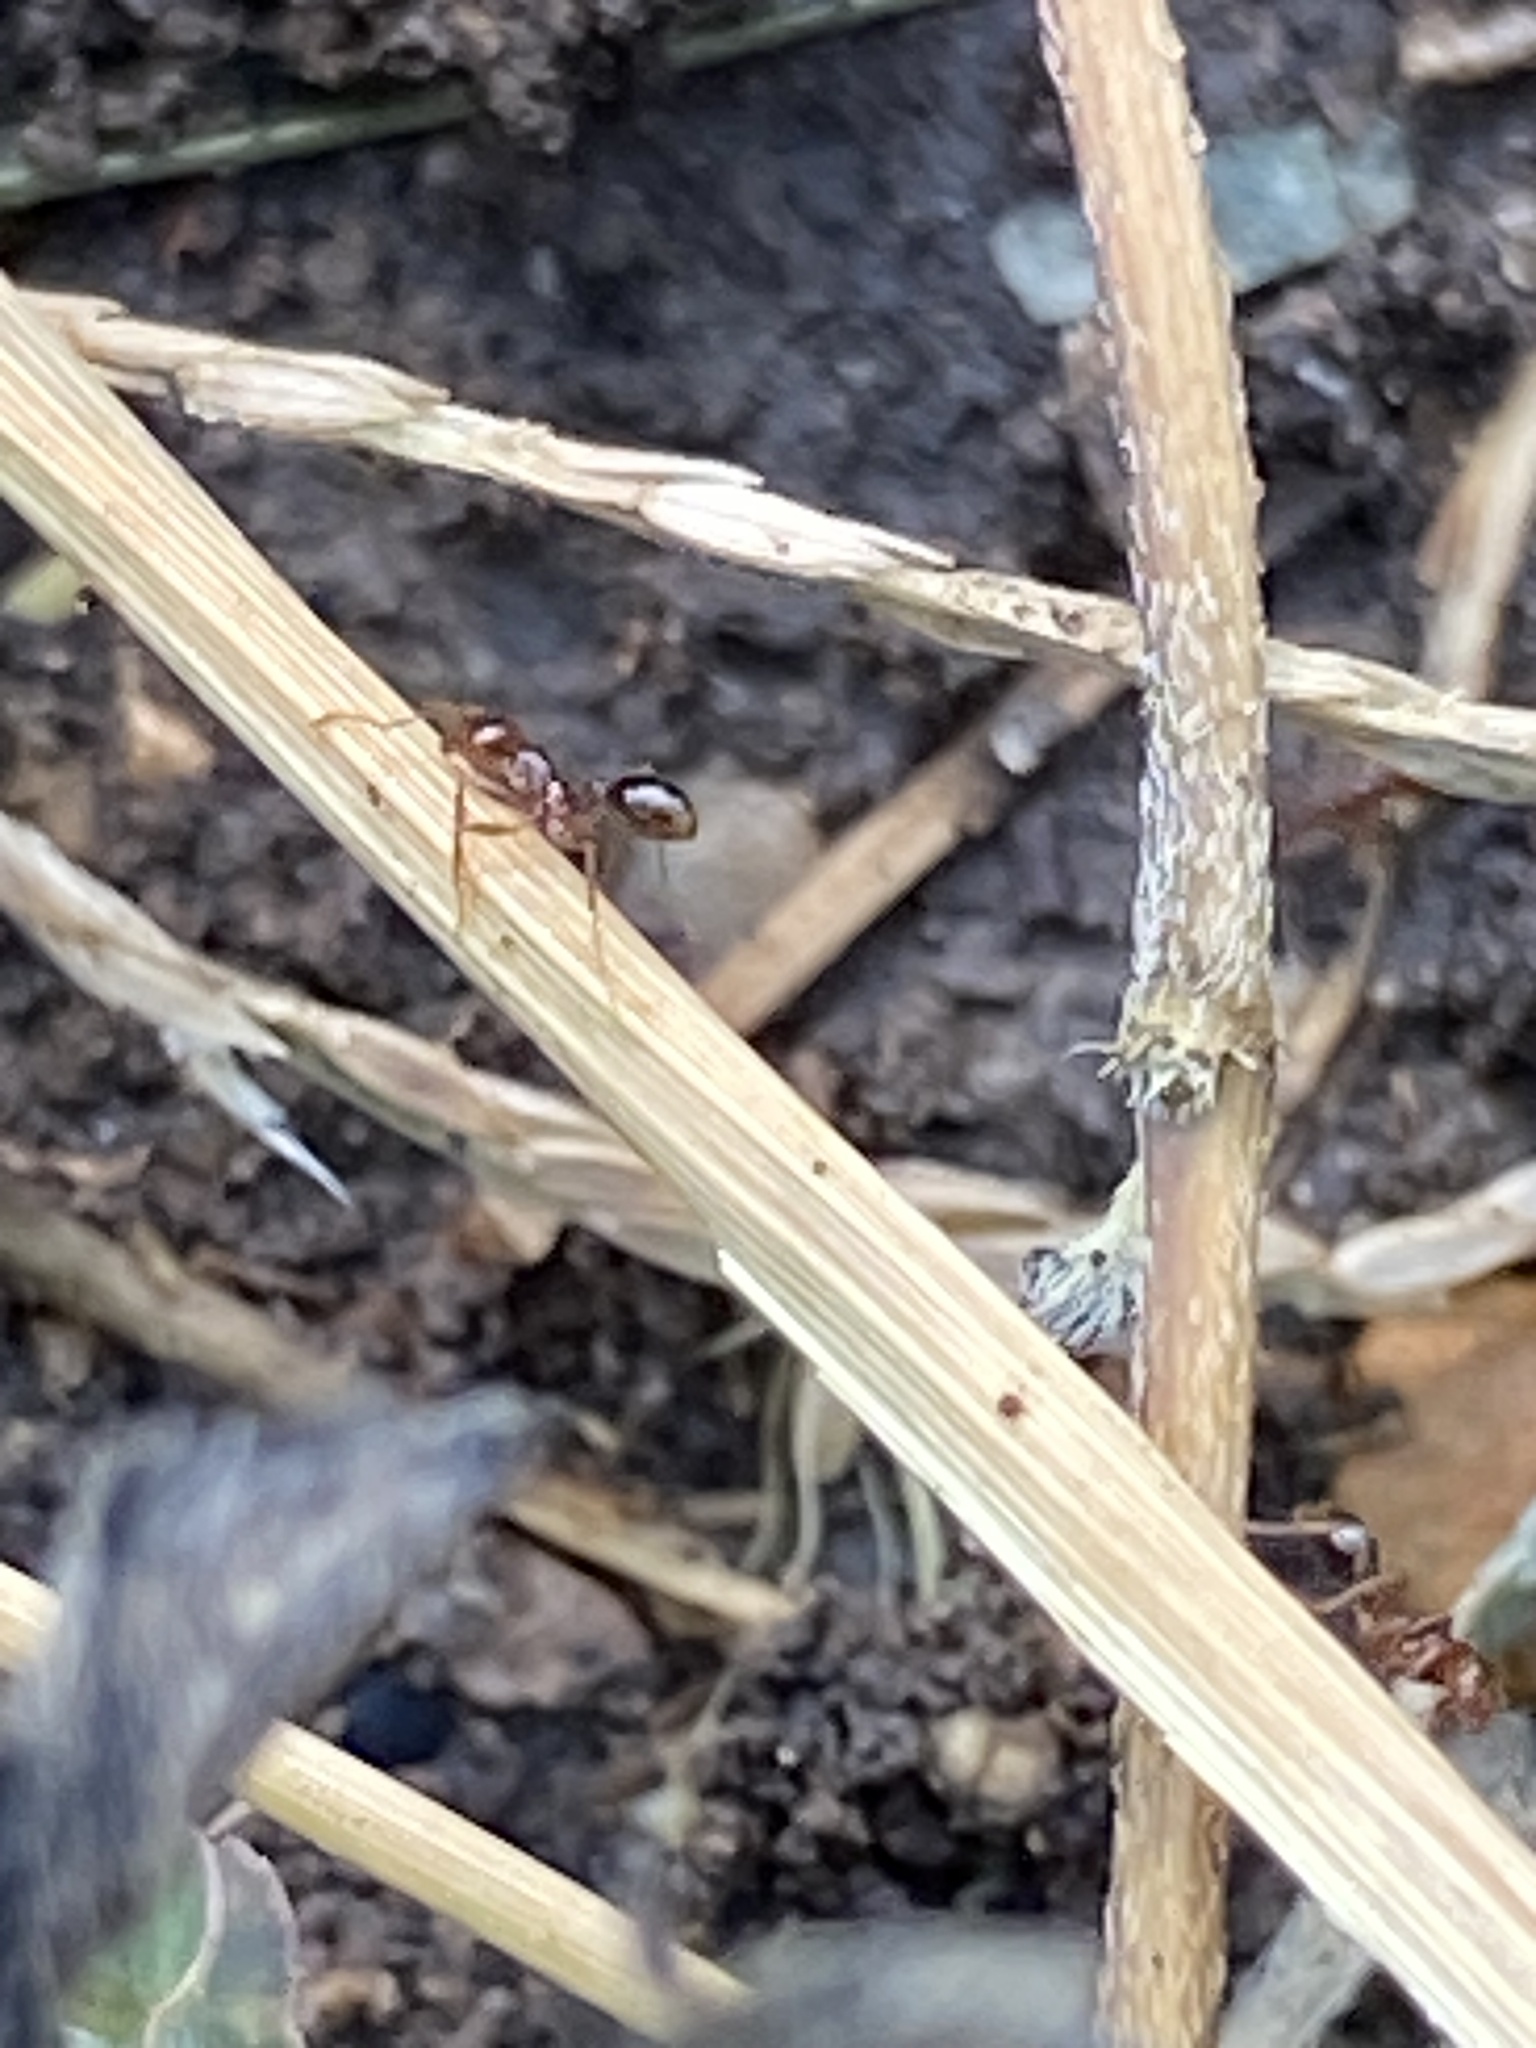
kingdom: Animalia
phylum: Arthropoda
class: Insecta
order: Hymenoptera
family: Formicidae
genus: Solenopsis
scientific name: Solenopsis invicta
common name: Red imported fire ant
